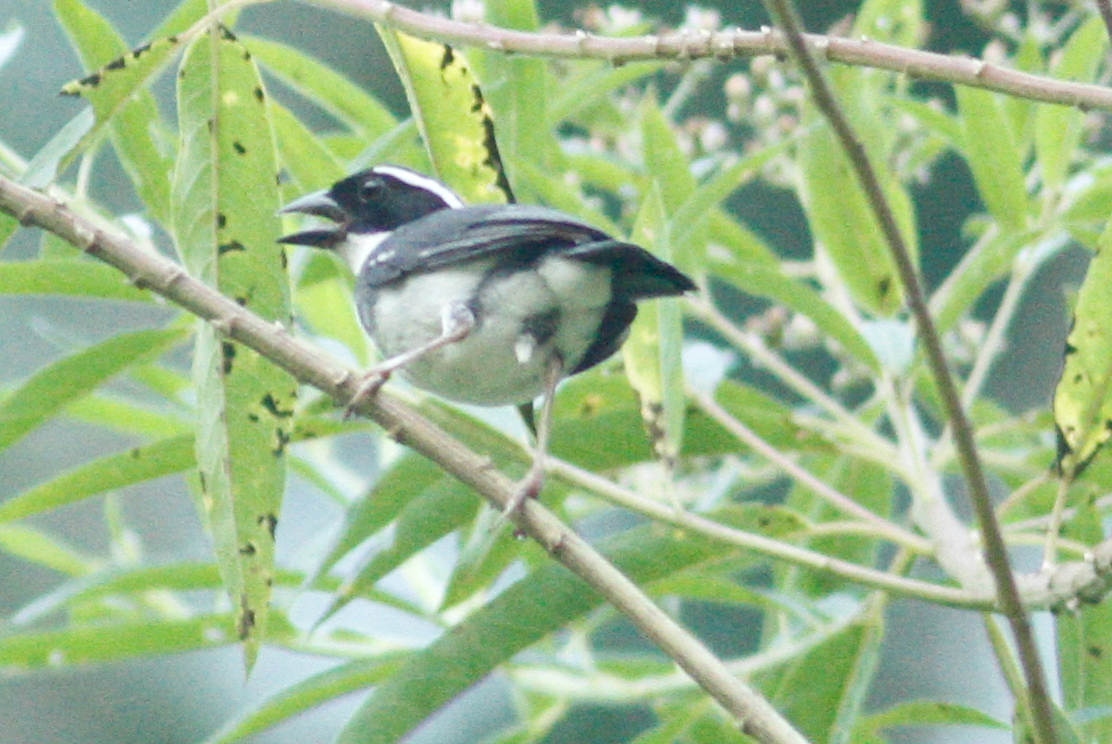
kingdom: Animalia
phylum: Chordata
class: Aves
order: Passeriformes
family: Passerellidae
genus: Arremon
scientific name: Arremon abeillei
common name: Black-capped sparrow
